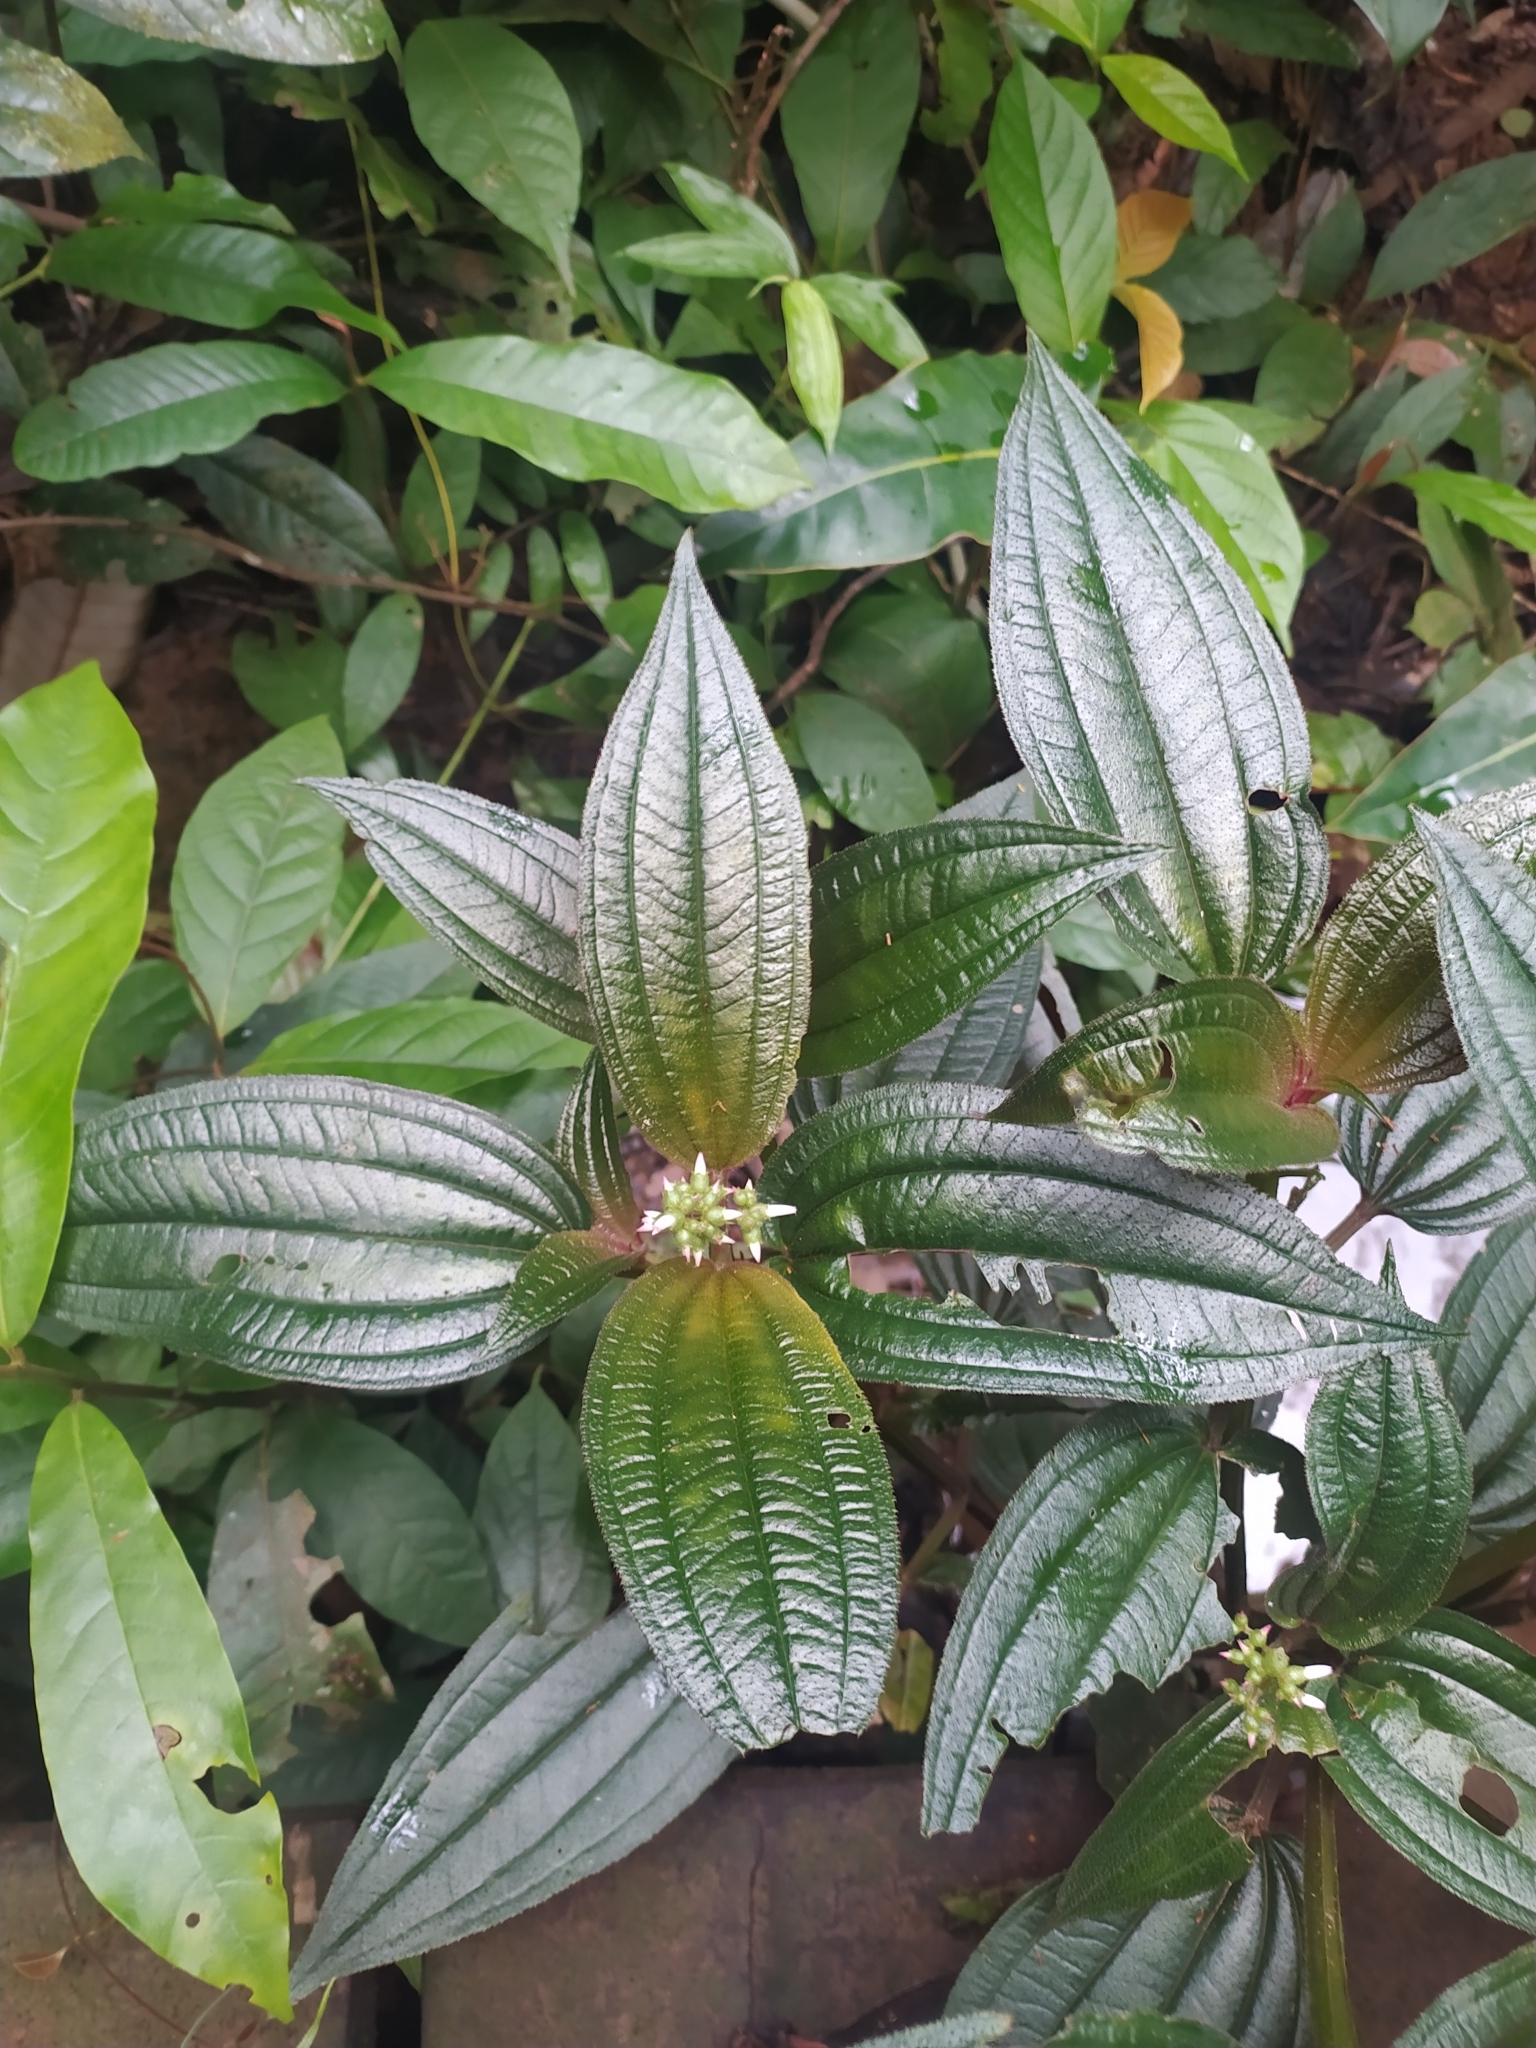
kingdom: Plantae
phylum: Tracheophyta
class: Magnoliopsida
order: Myrtales
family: Melastomataceae
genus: Aciotis
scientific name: Aciotis purpurascens
